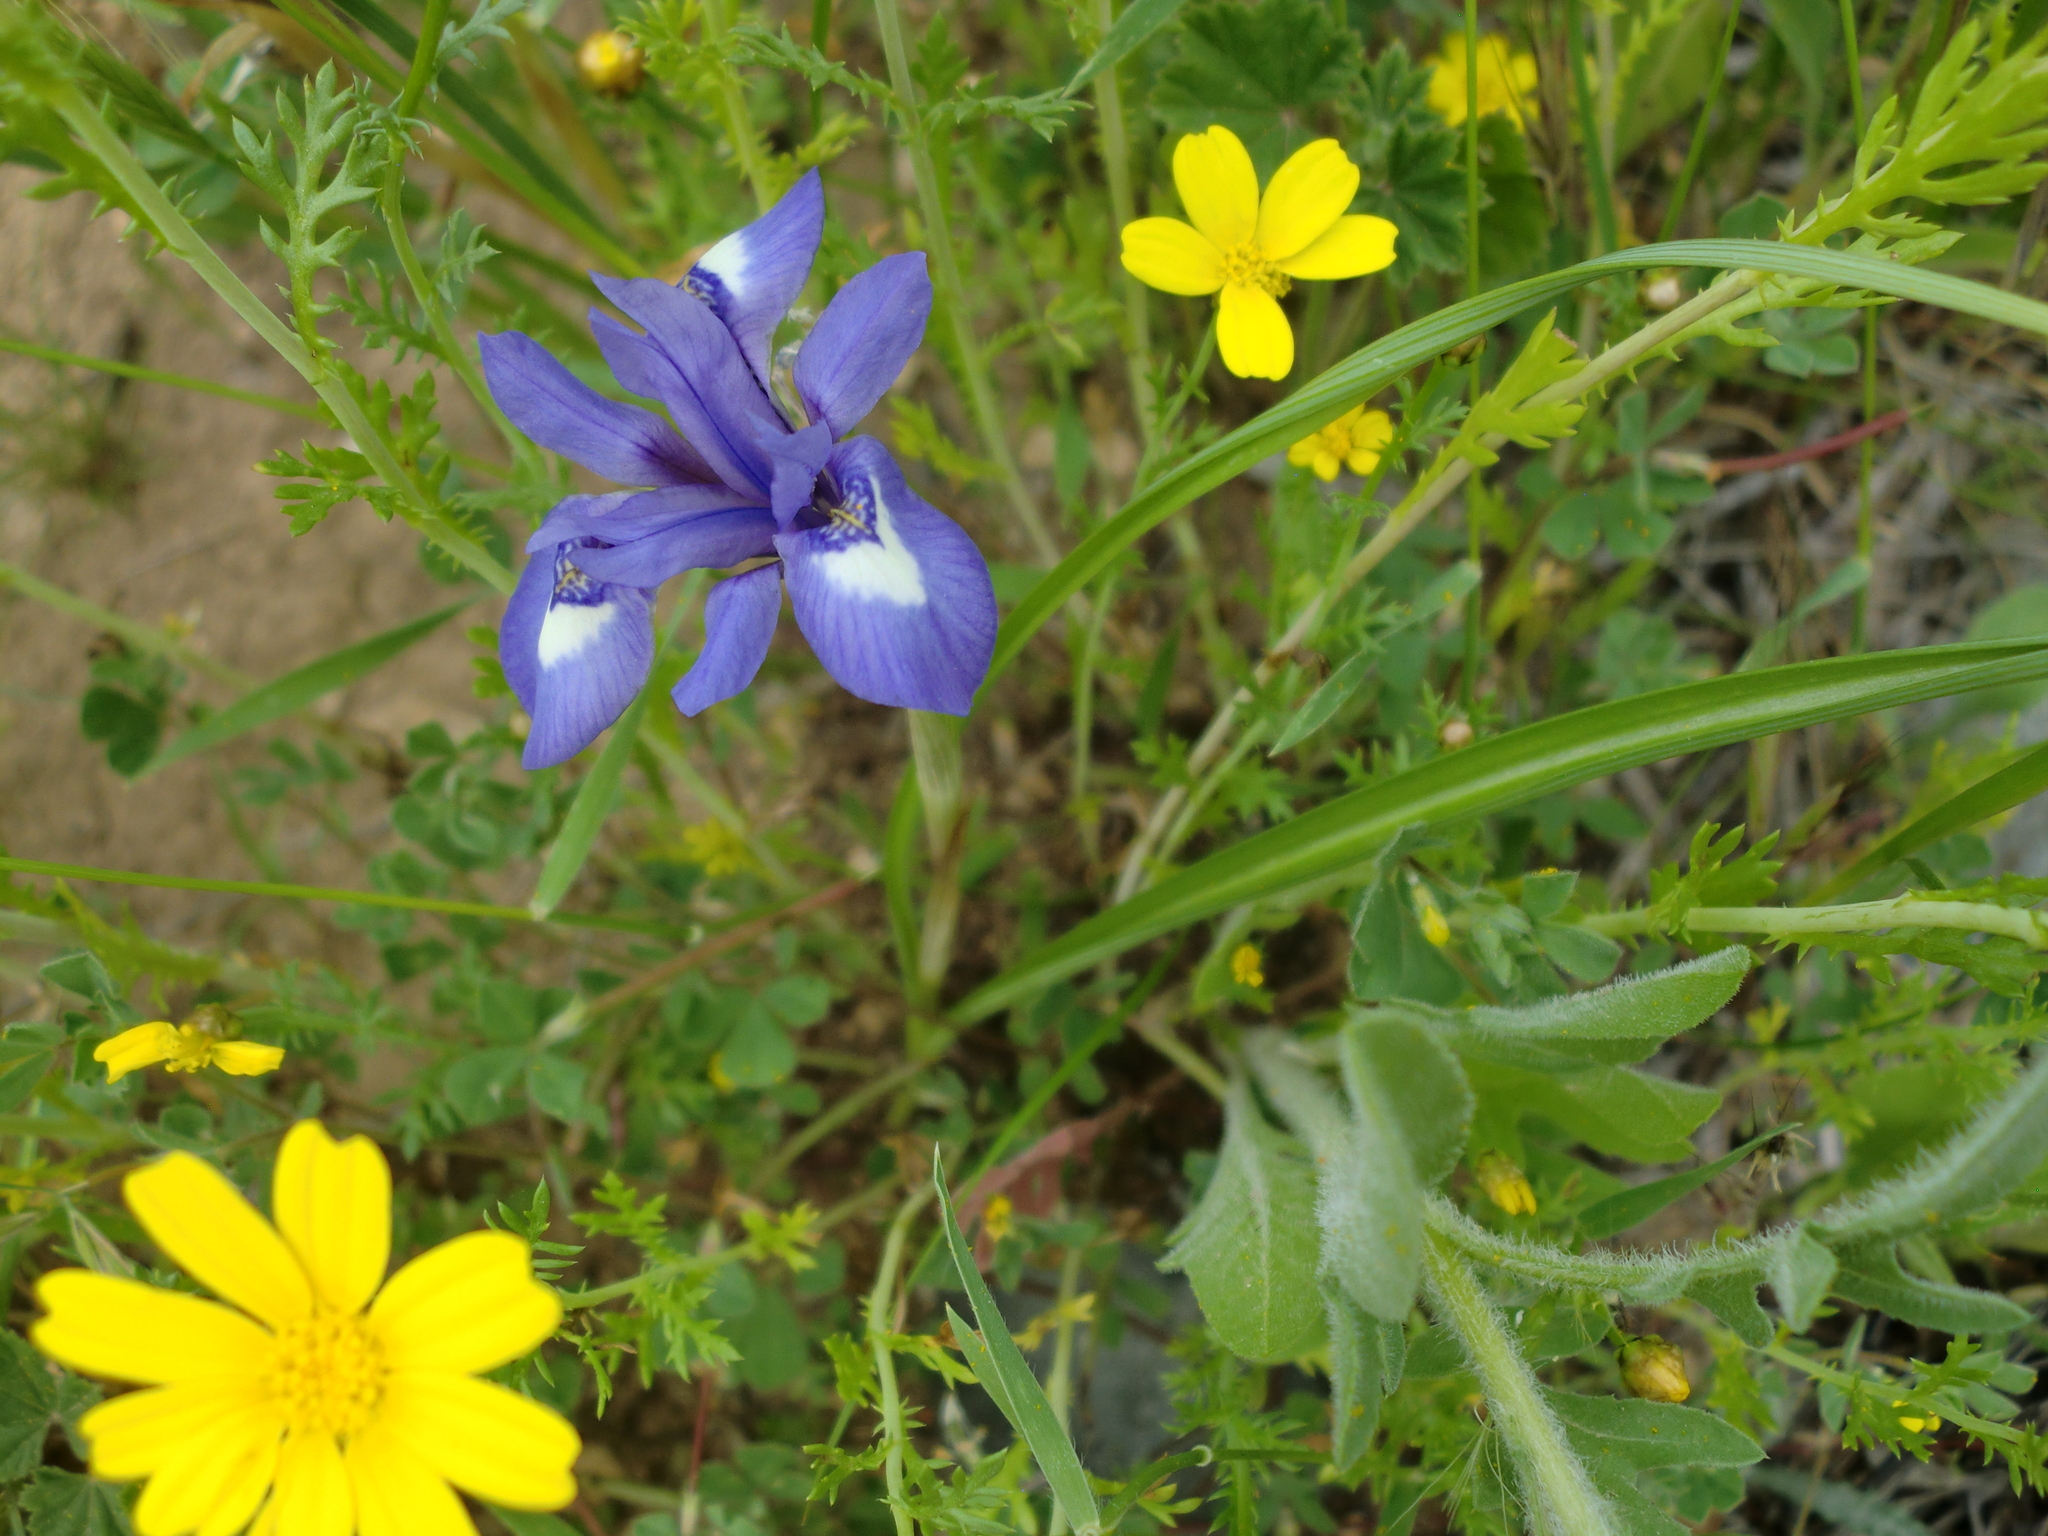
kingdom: Plantae
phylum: Tracheophyta
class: Liliopsida
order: Asparagales
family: Iridaceae
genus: Moraea
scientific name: Moraea sisyrinchium
